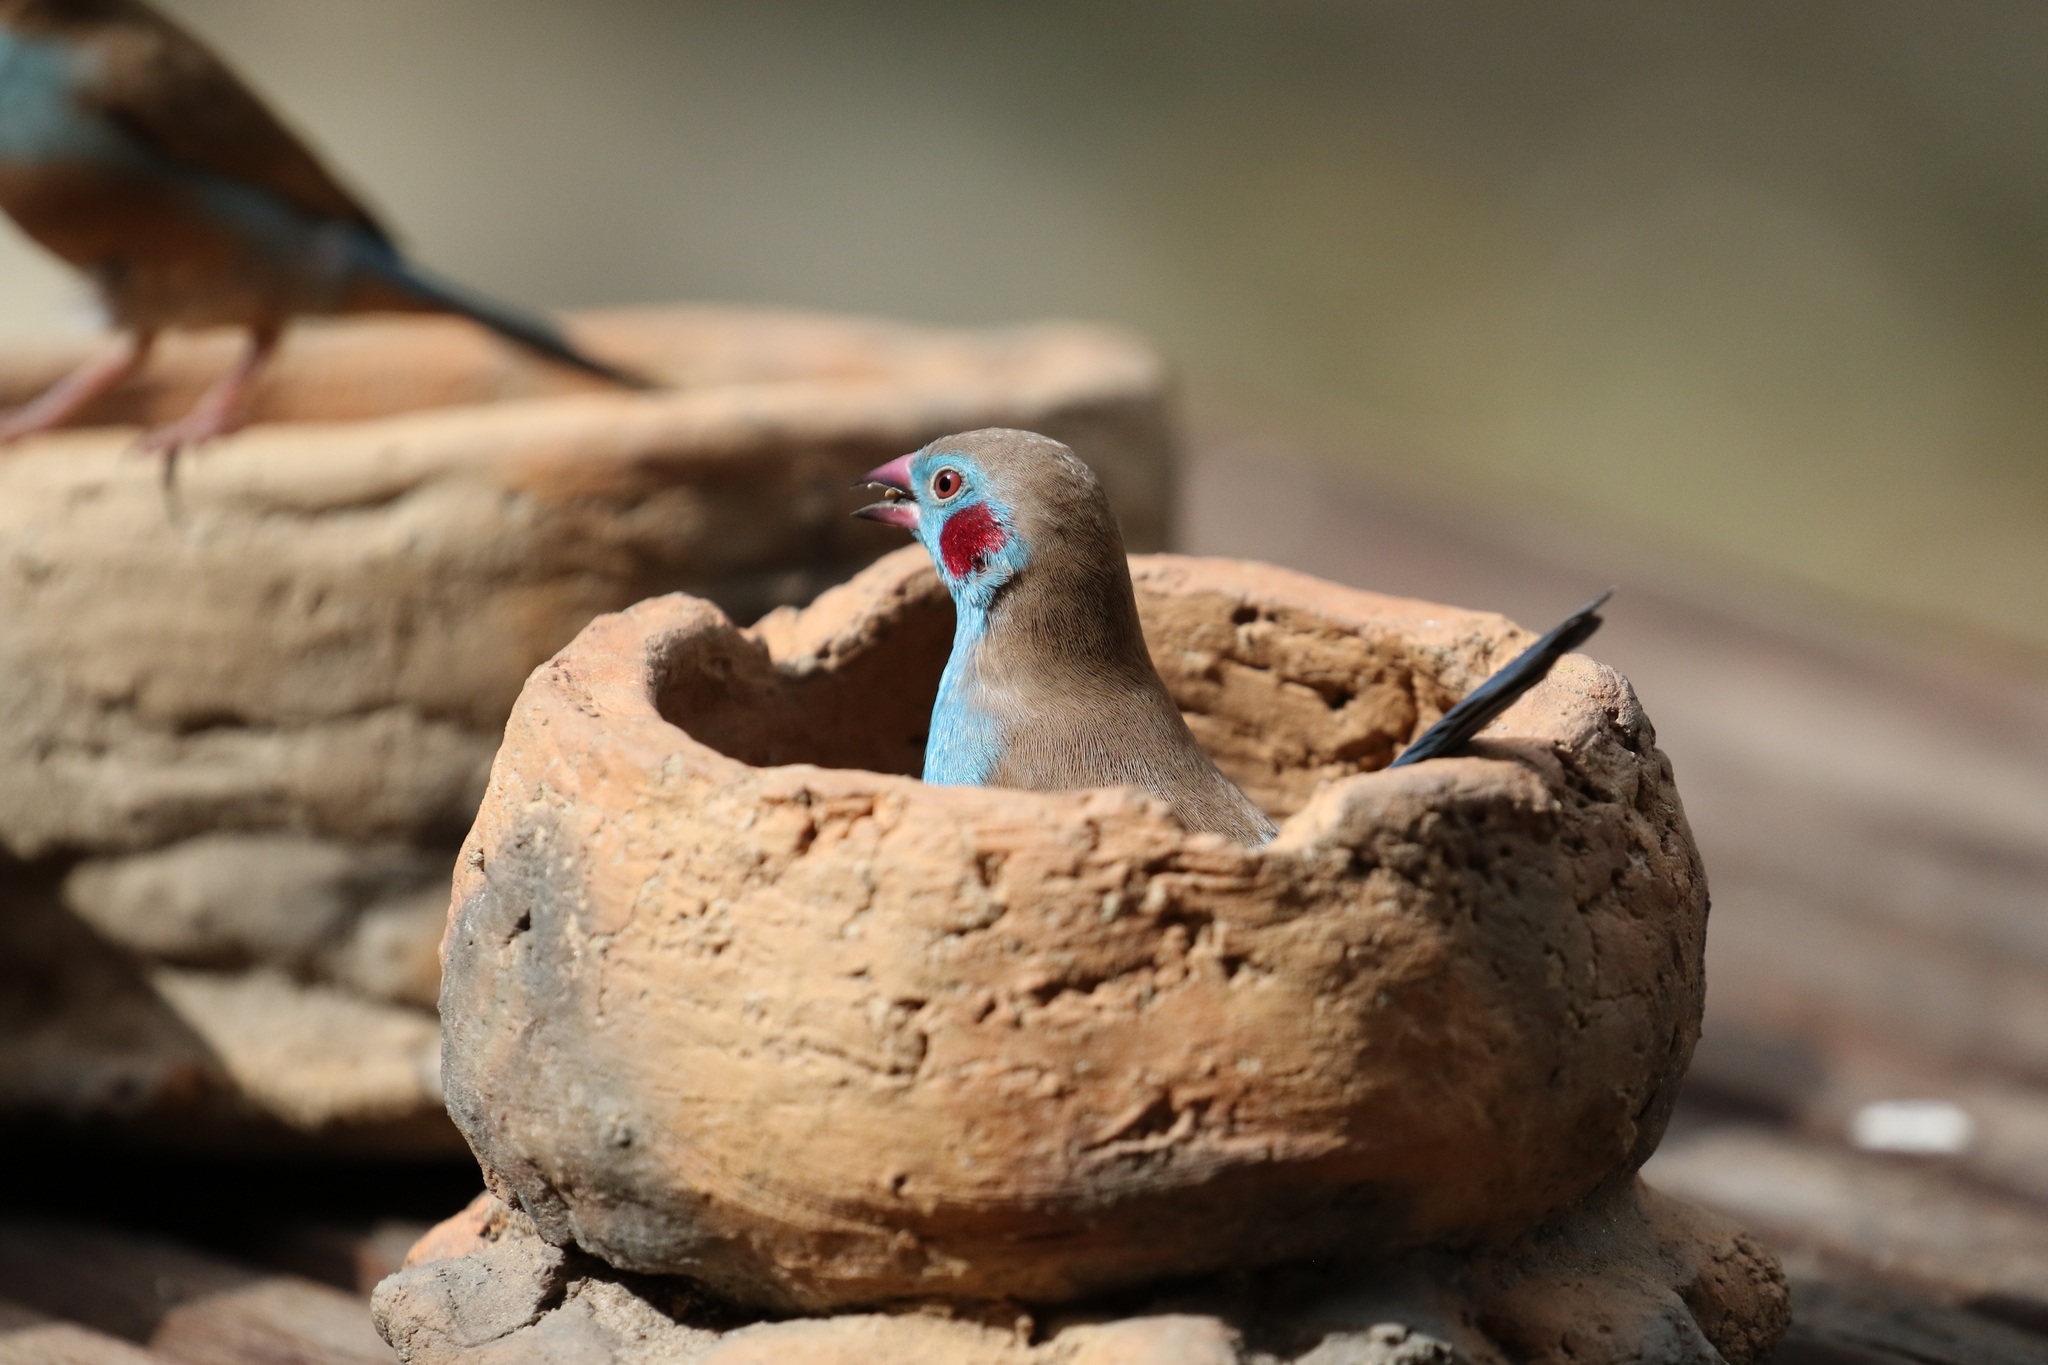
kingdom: Animalia
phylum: Chordata
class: Aves
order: Passeriformes
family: Estrildidae
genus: Uraeginthus
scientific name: Uraeginthus bengalus
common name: Red-cheeked cordon-bleu
